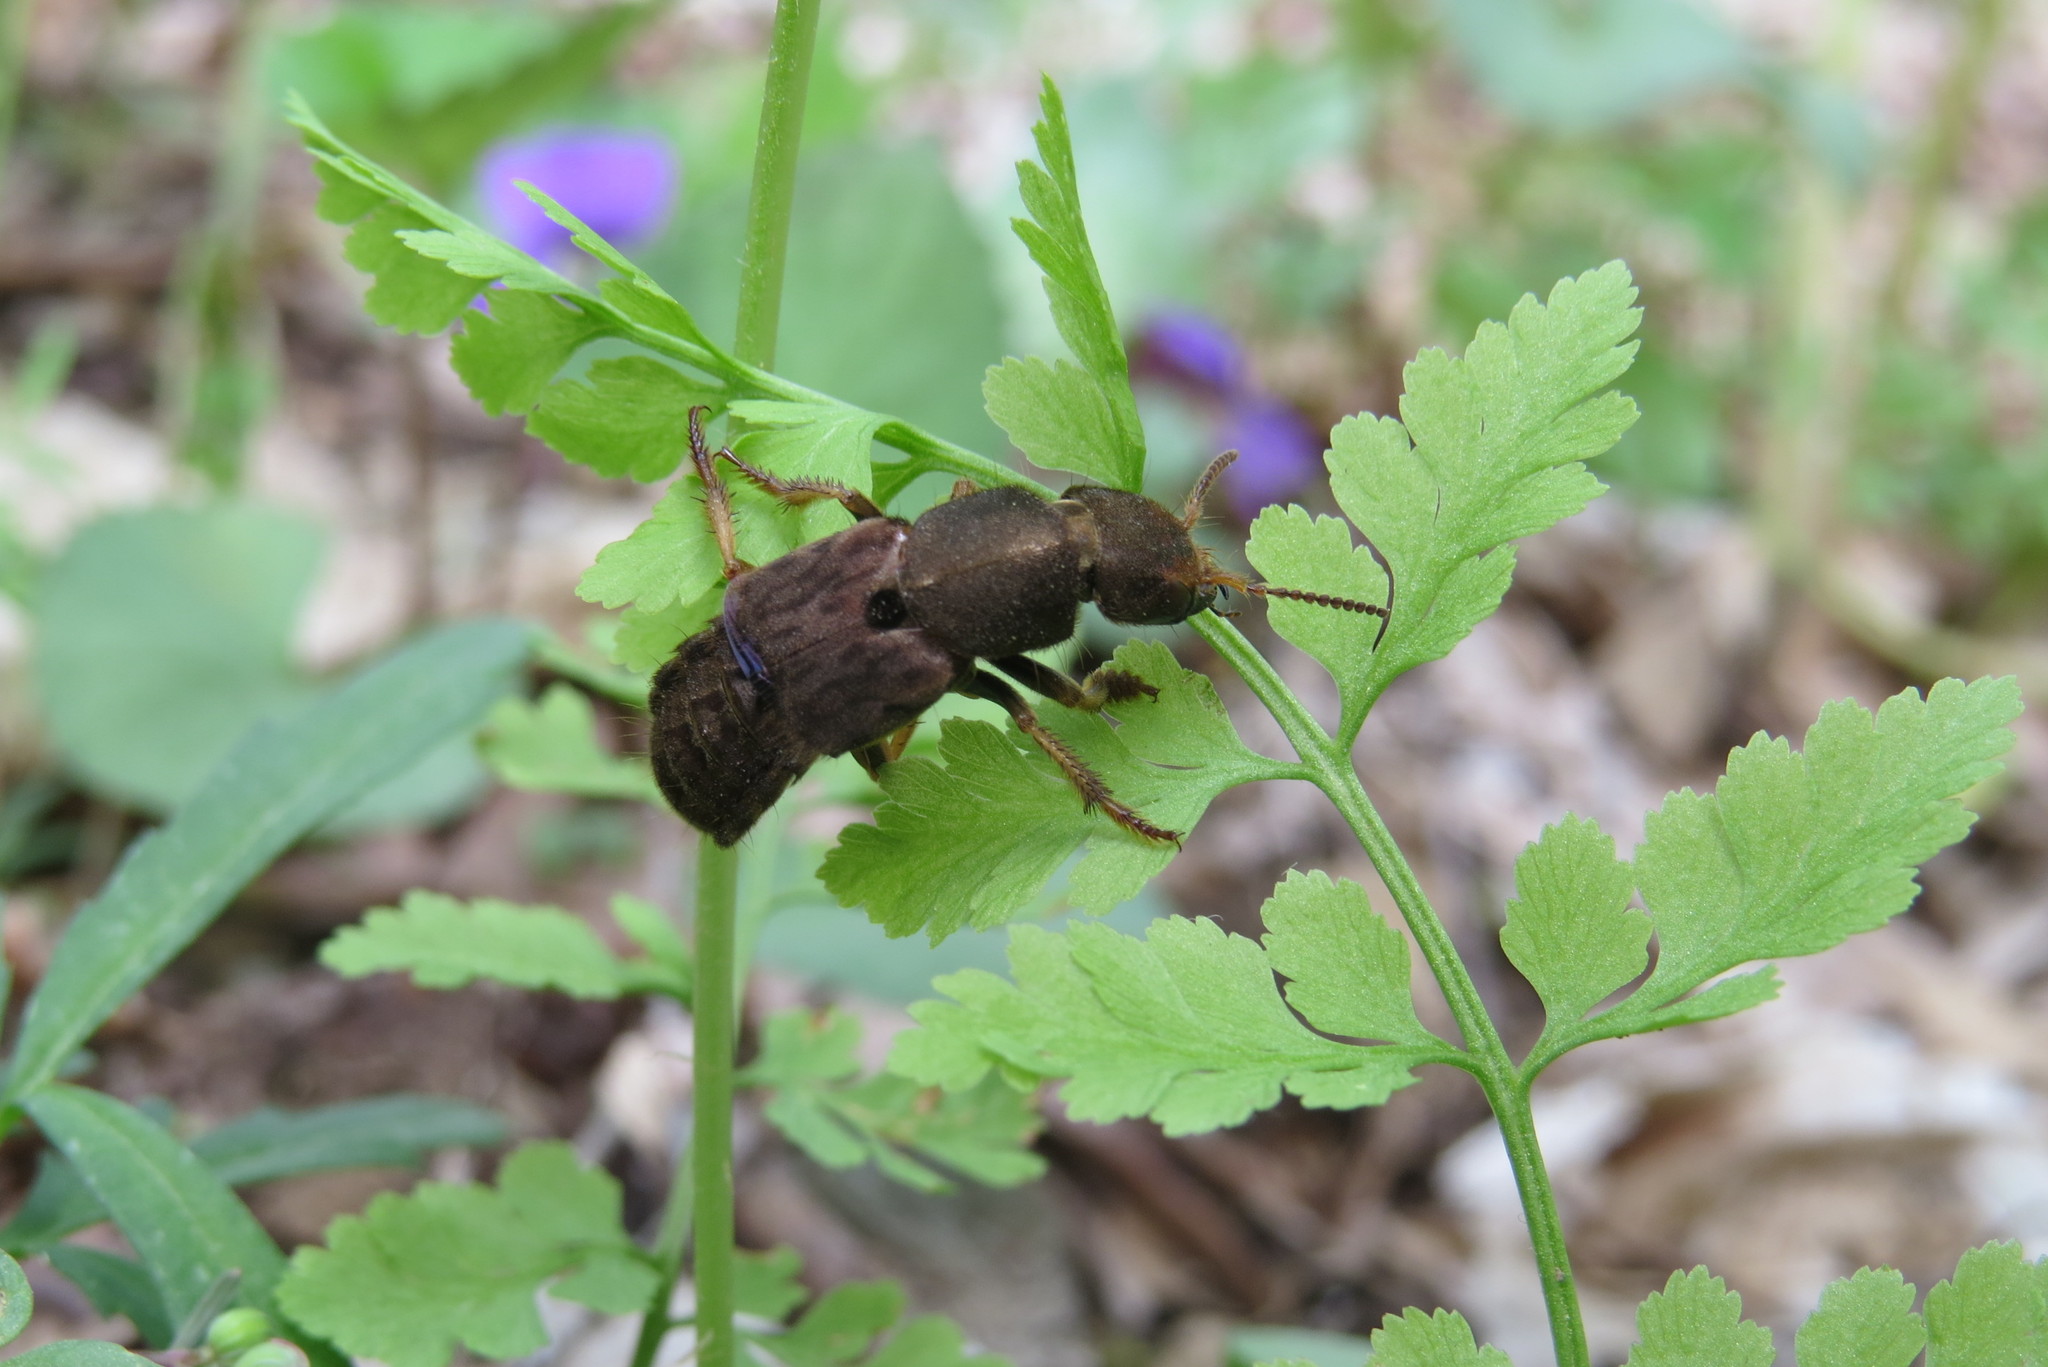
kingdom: Animalia
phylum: Arthropoda
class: Insecta
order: Coleoptera
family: Staphylinidae
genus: Platydracus
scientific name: Platydracus maculosus
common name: Brown rove beetle
